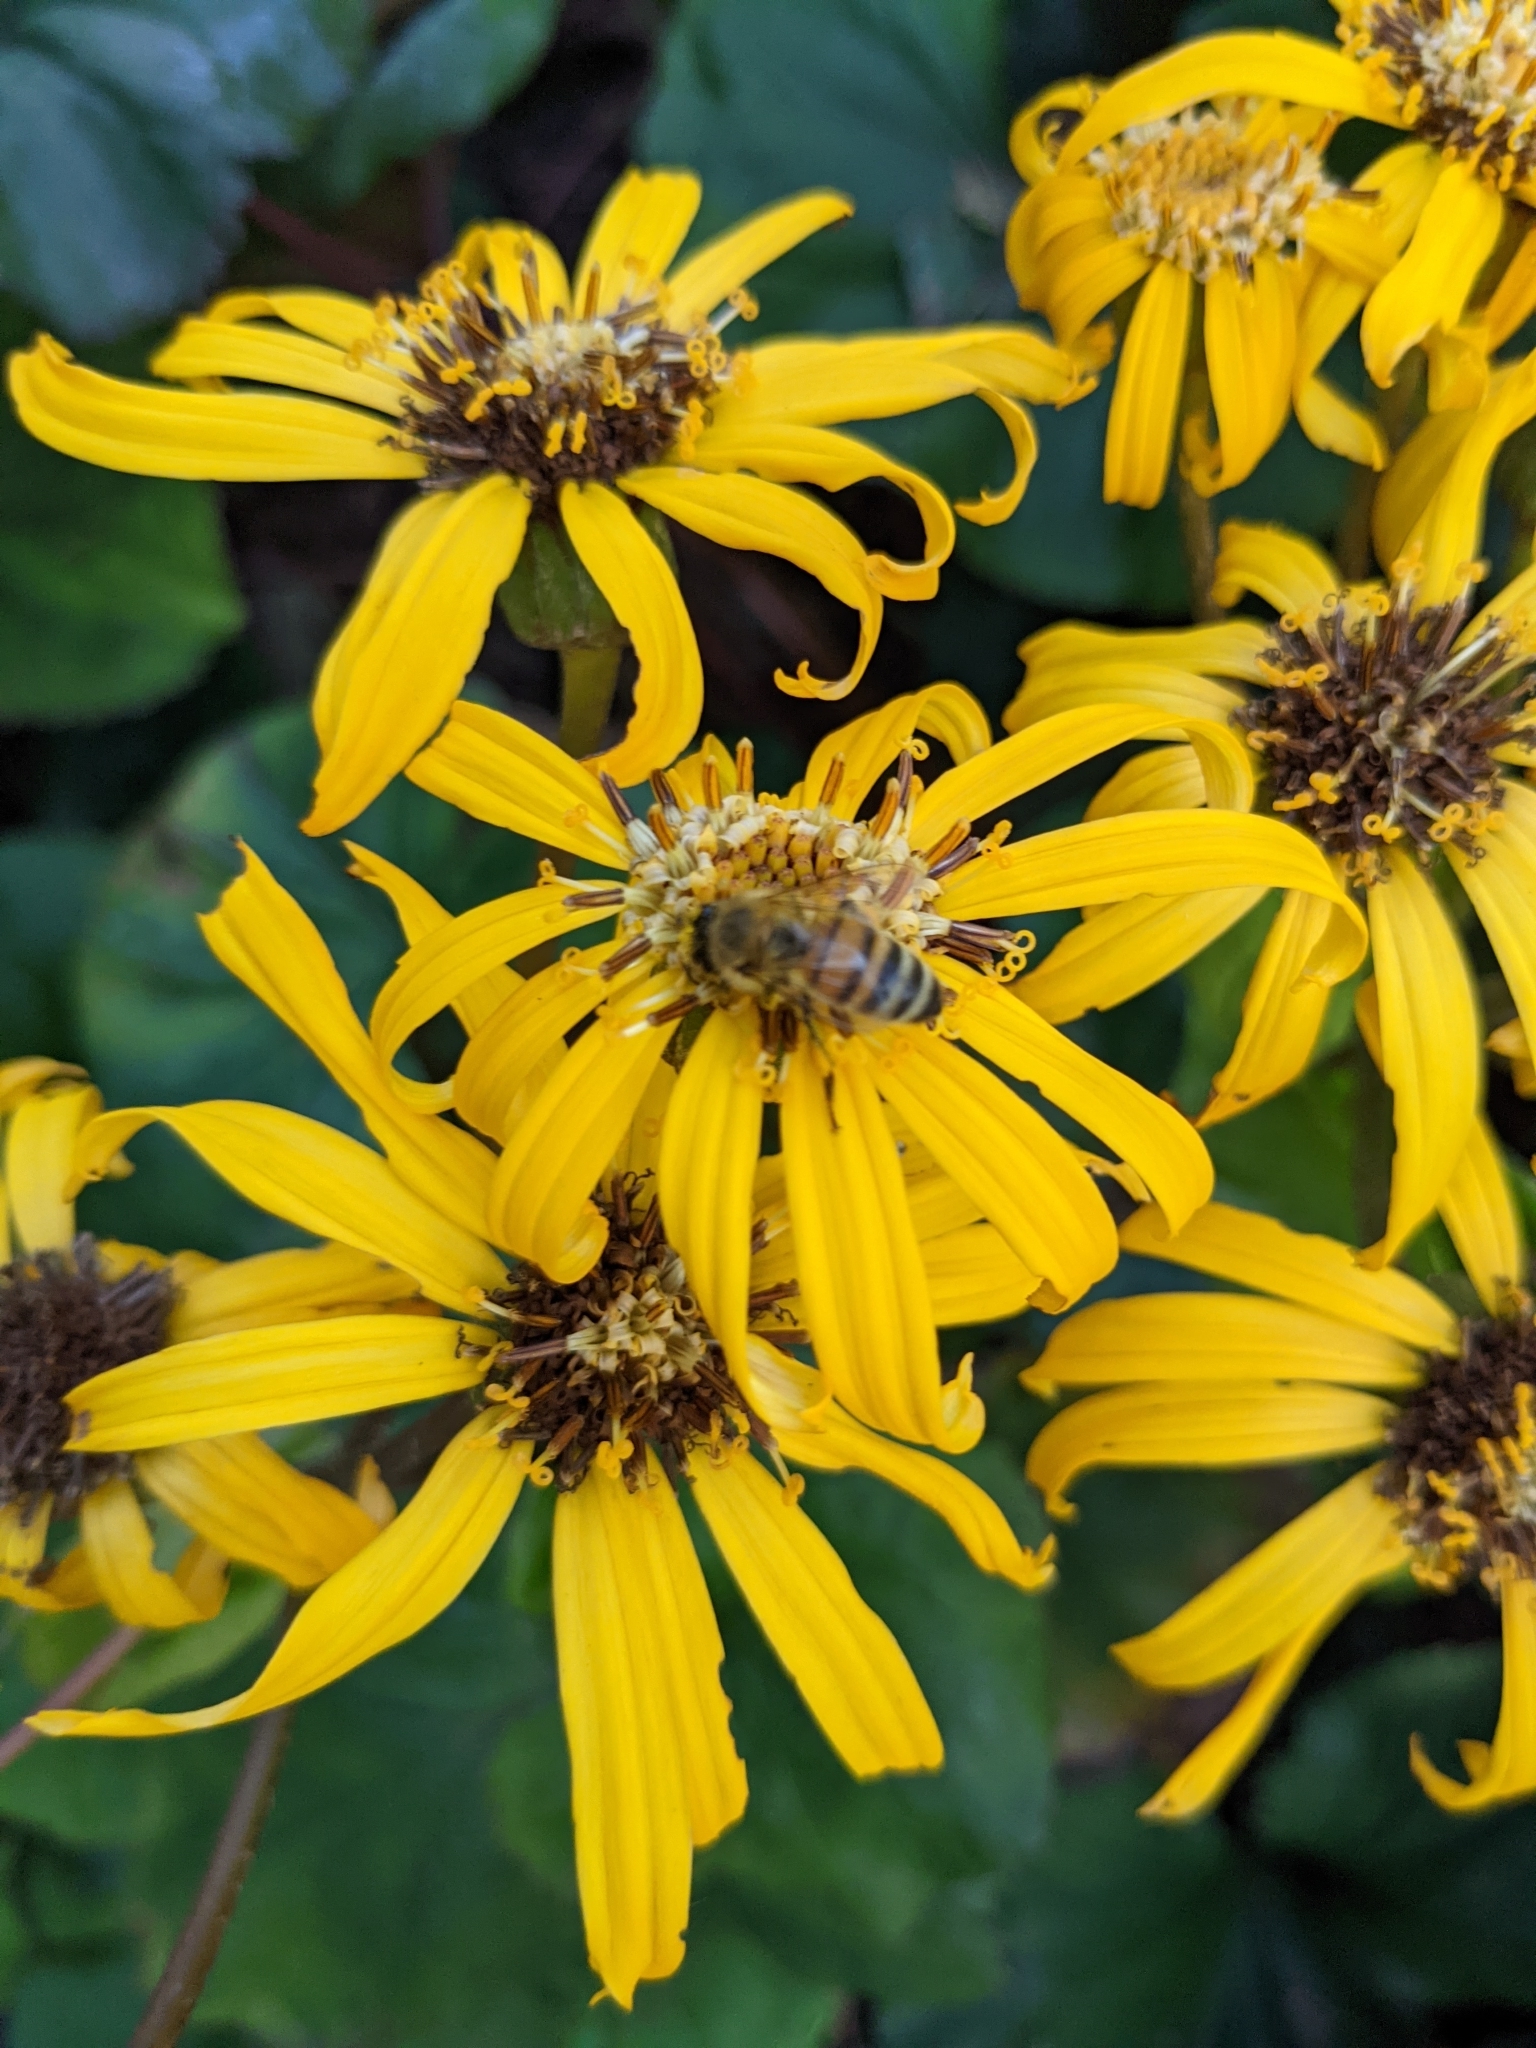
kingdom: Animalia
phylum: Arthropoda
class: Insecta
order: Hymenoptera
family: Apidae
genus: Apis
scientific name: Apis mellifera
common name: Honey bee
